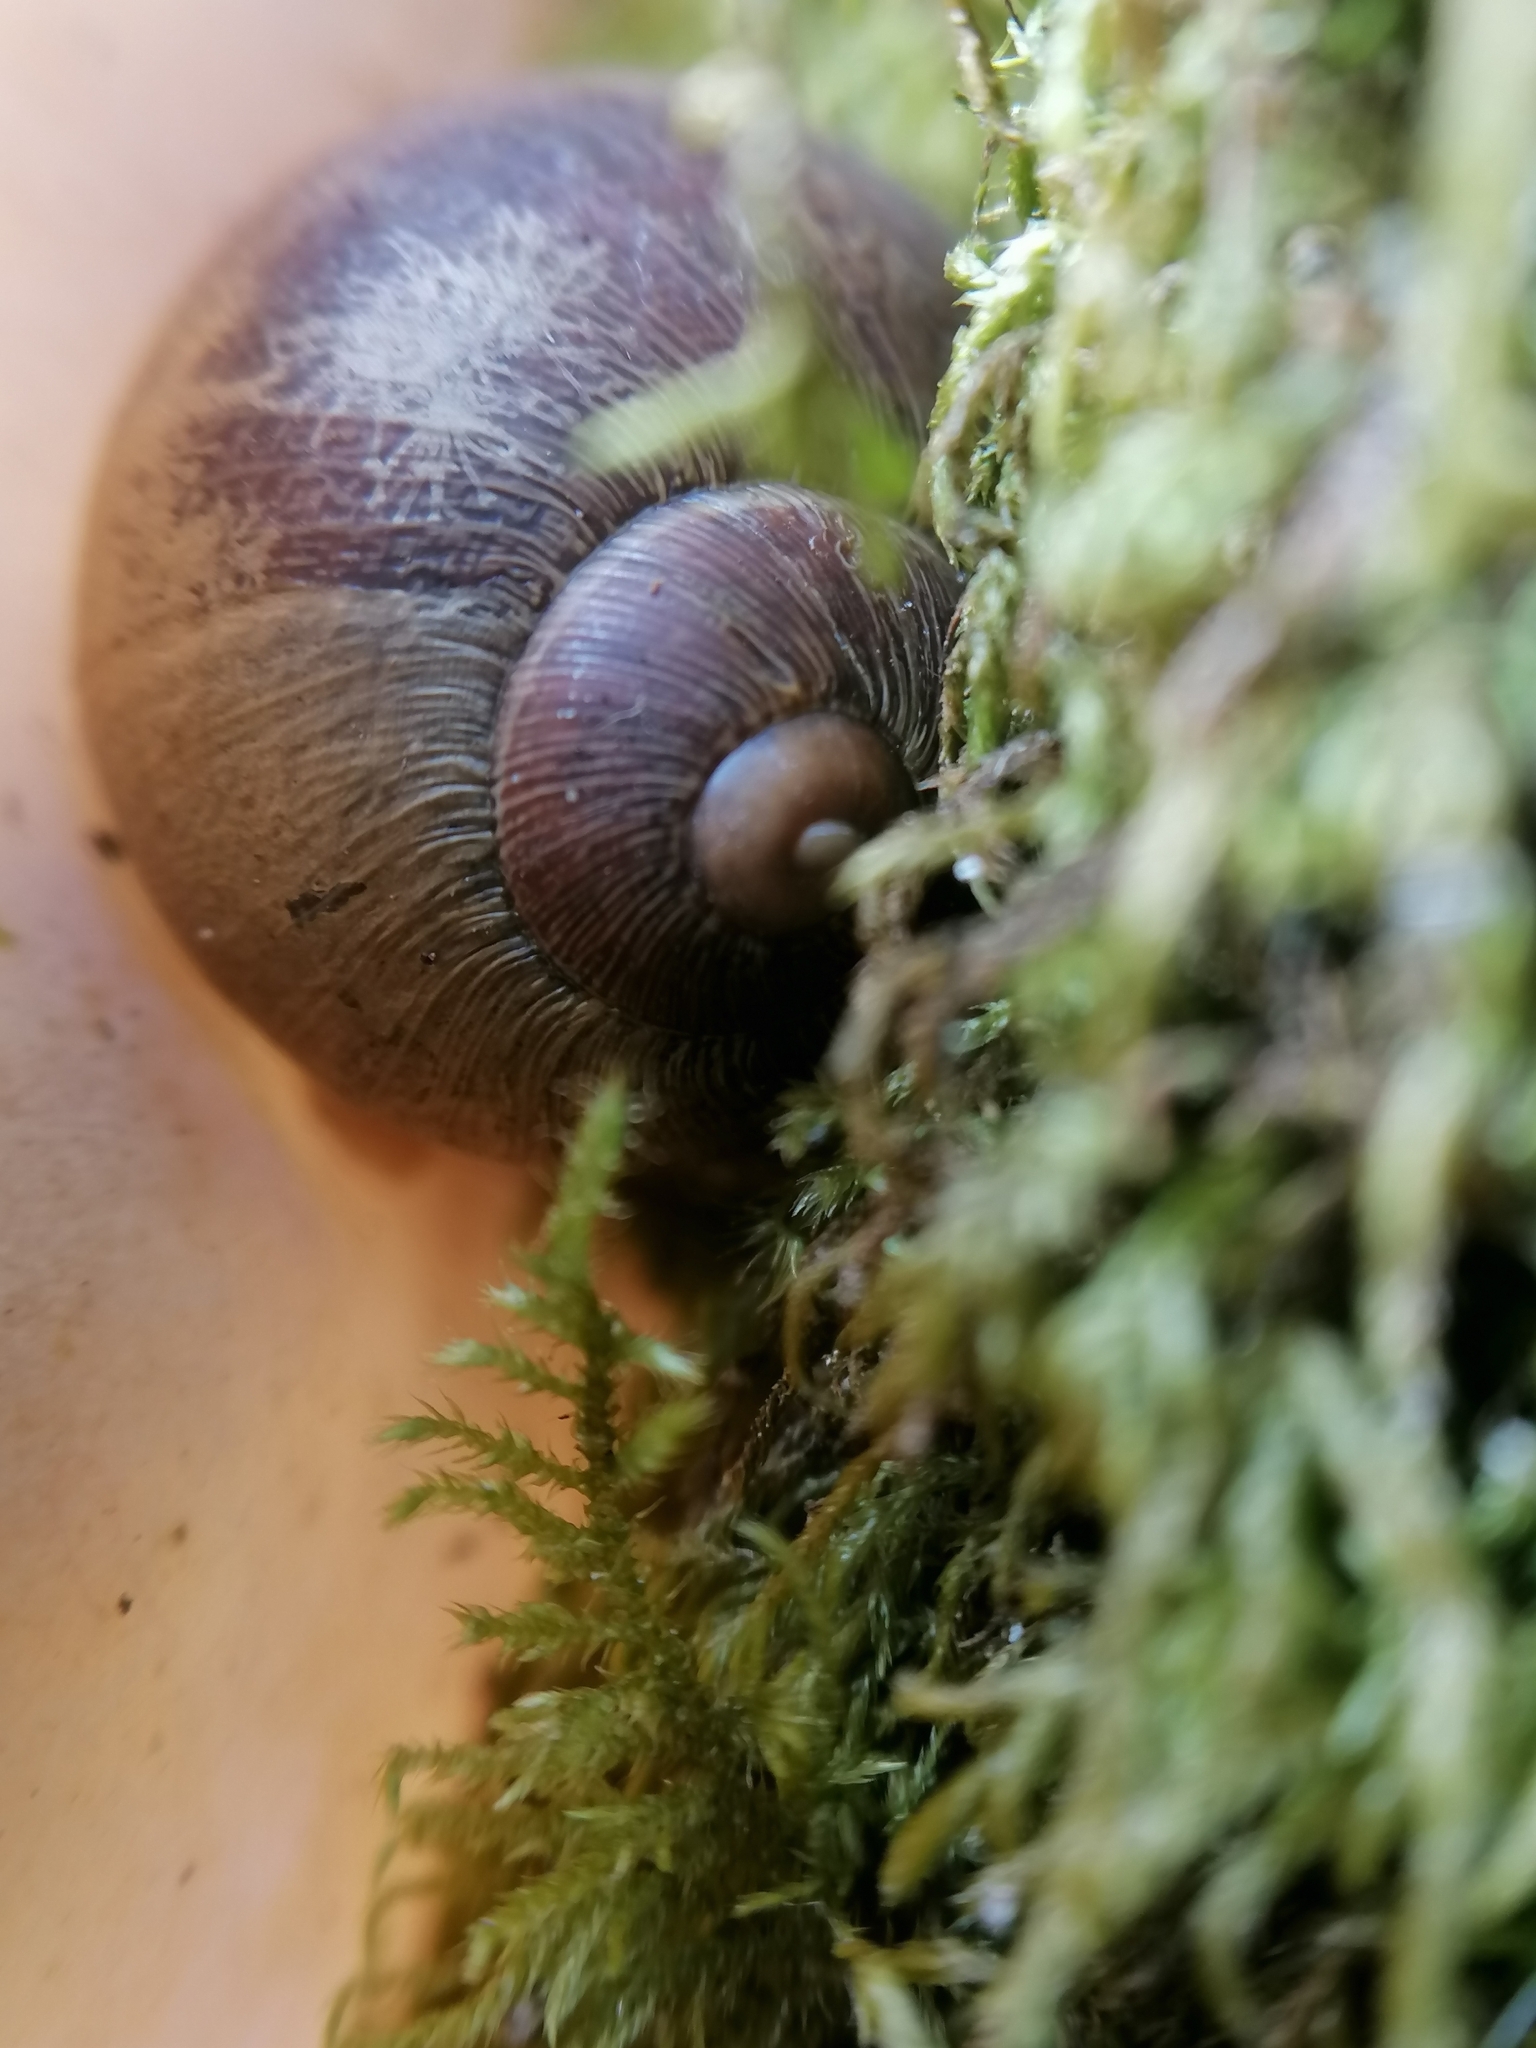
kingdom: Animalia
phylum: Mollusca
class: Gastropoda
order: Stylommatophora
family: Helicidae
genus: Cornu
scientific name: Cornu aspersum
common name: Brown garden snail
